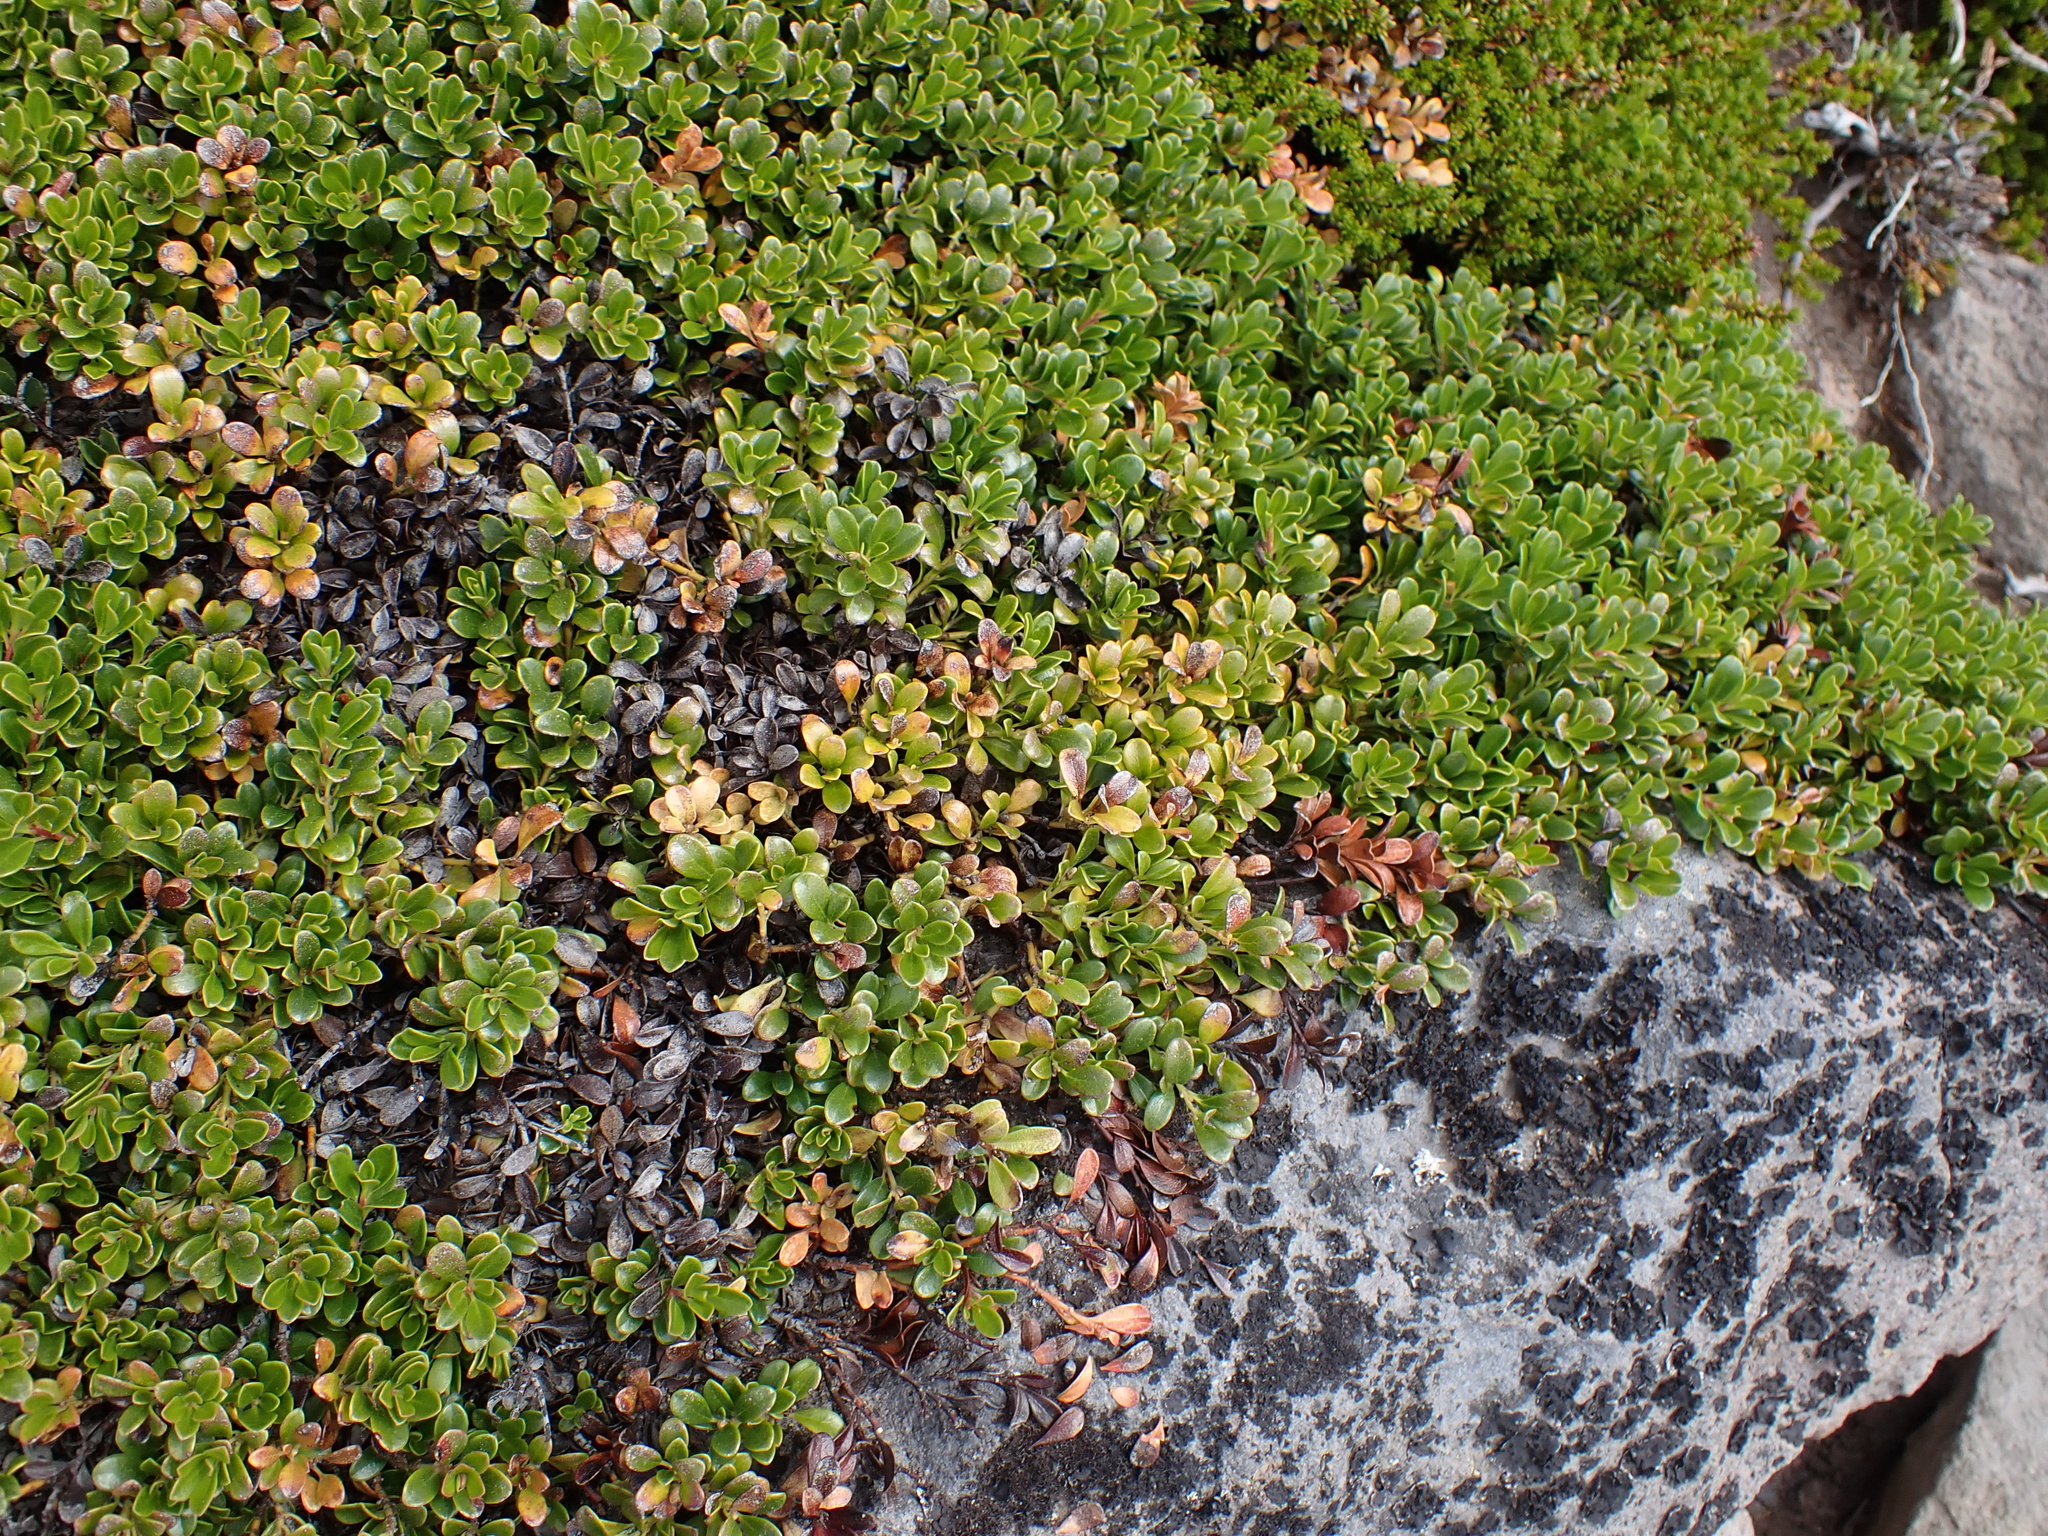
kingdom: Plantae
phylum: Tracheophyta
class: Magnoliopsida
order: Ericales
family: Ericaceae
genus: Arctostaphylos
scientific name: Arctostaphylos uva-ursi
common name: Bearberry
